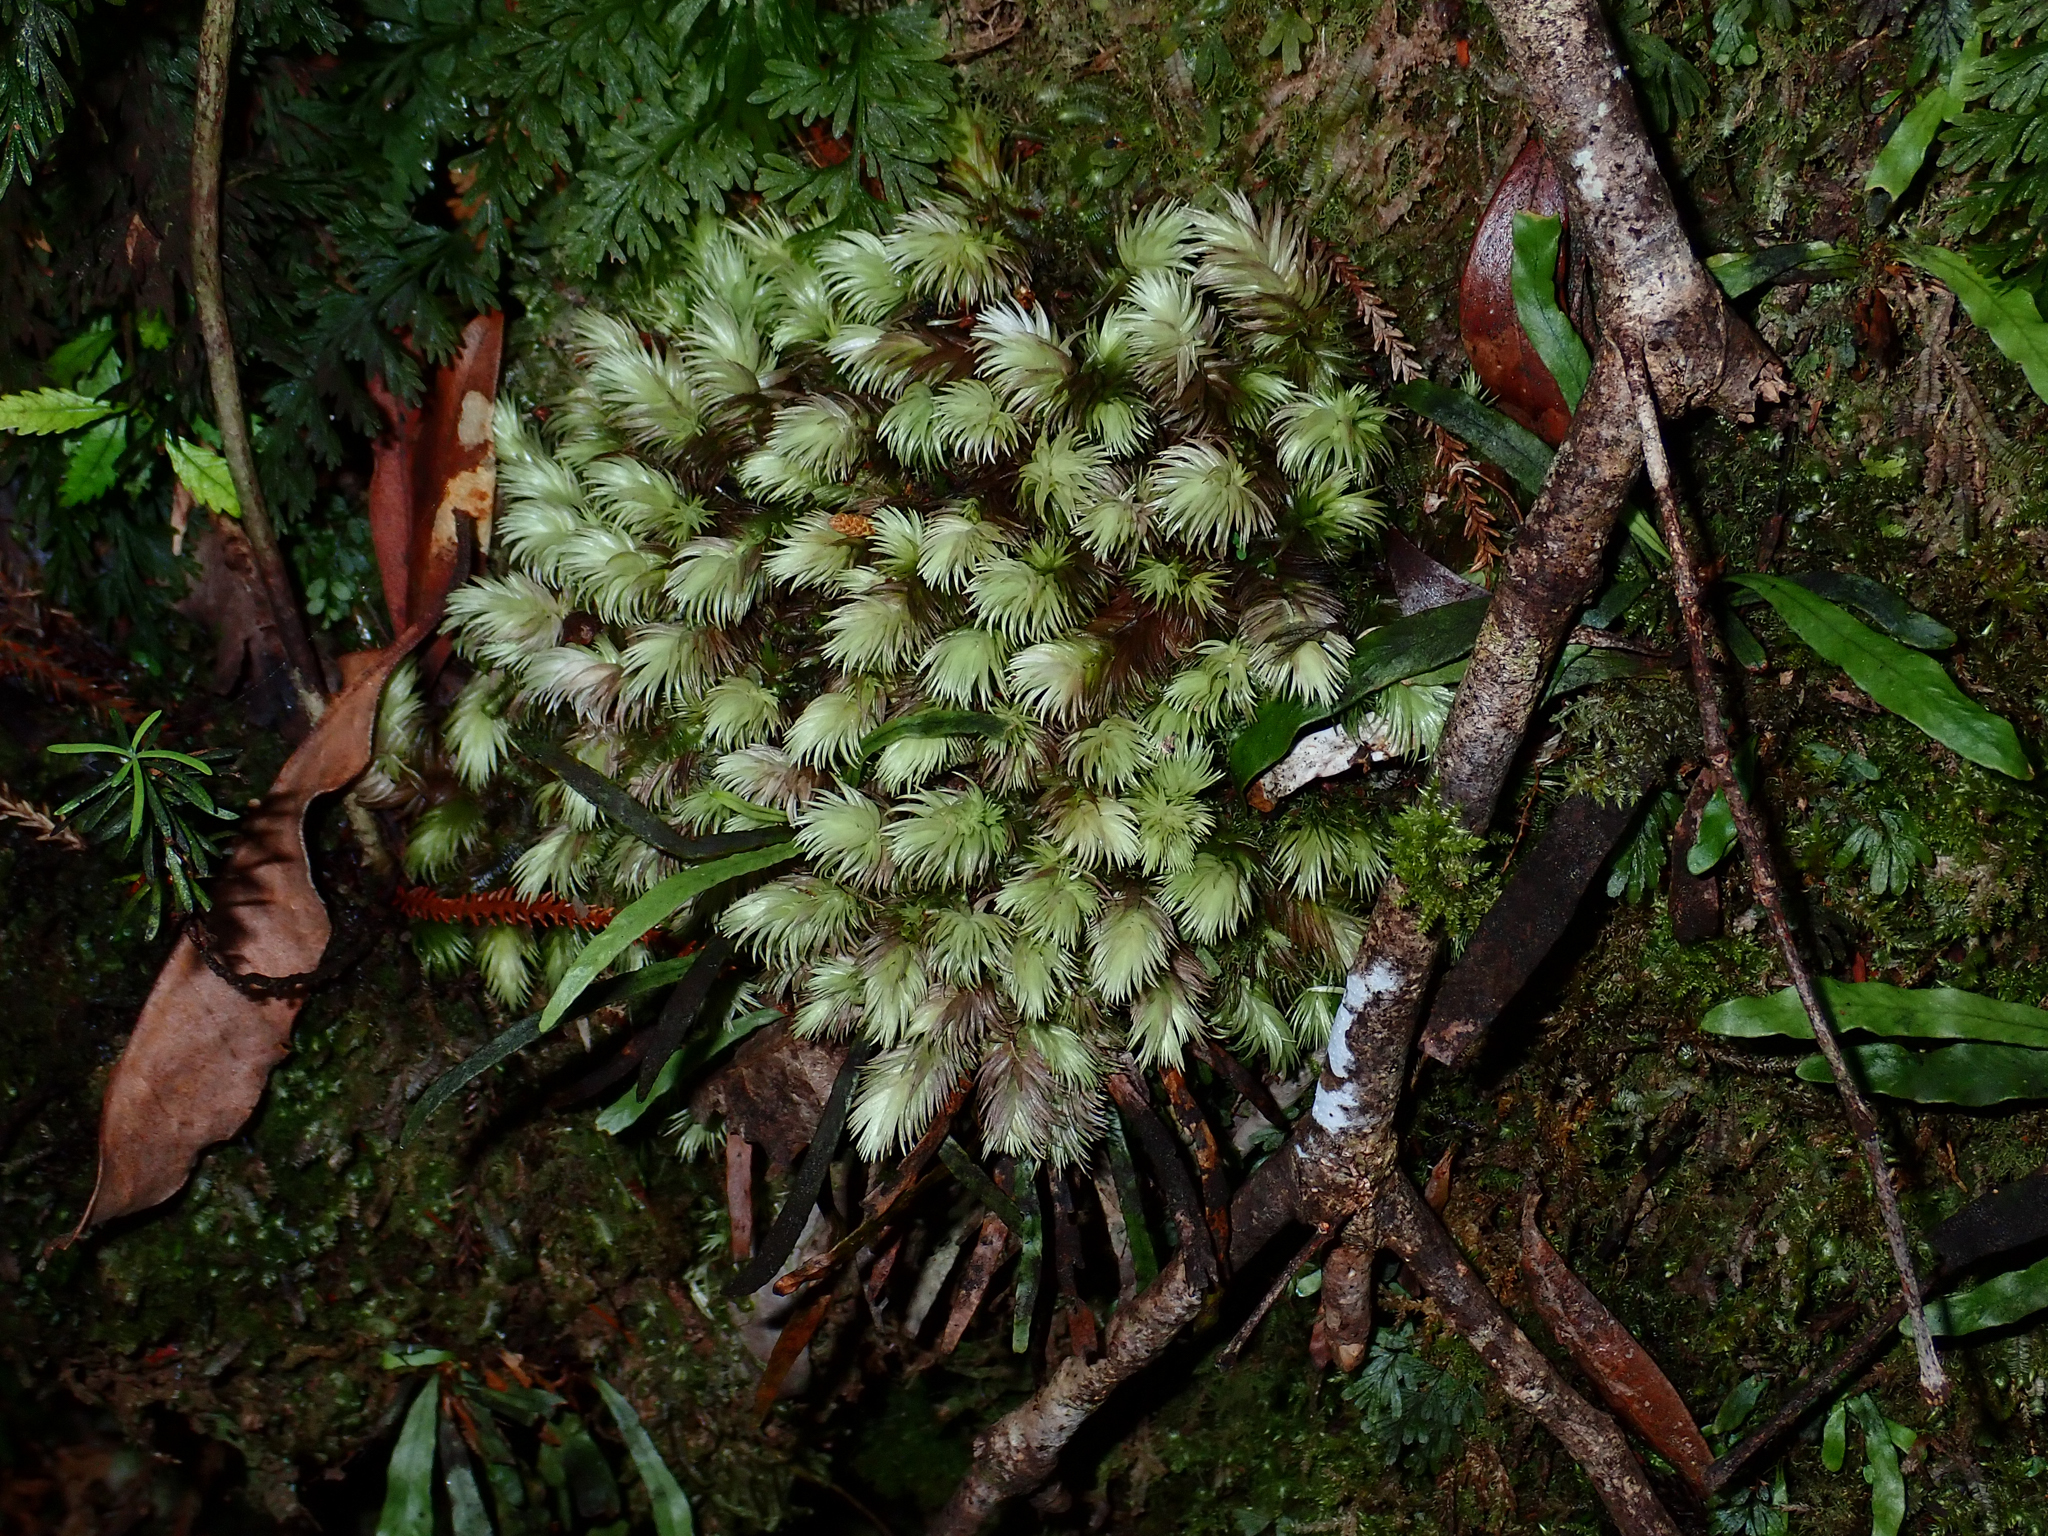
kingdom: Plantae
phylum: Bryophyta
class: Bryopsida
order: Dicranales
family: Leucobryaceae
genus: Leucobryum
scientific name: Leucobryum javense
